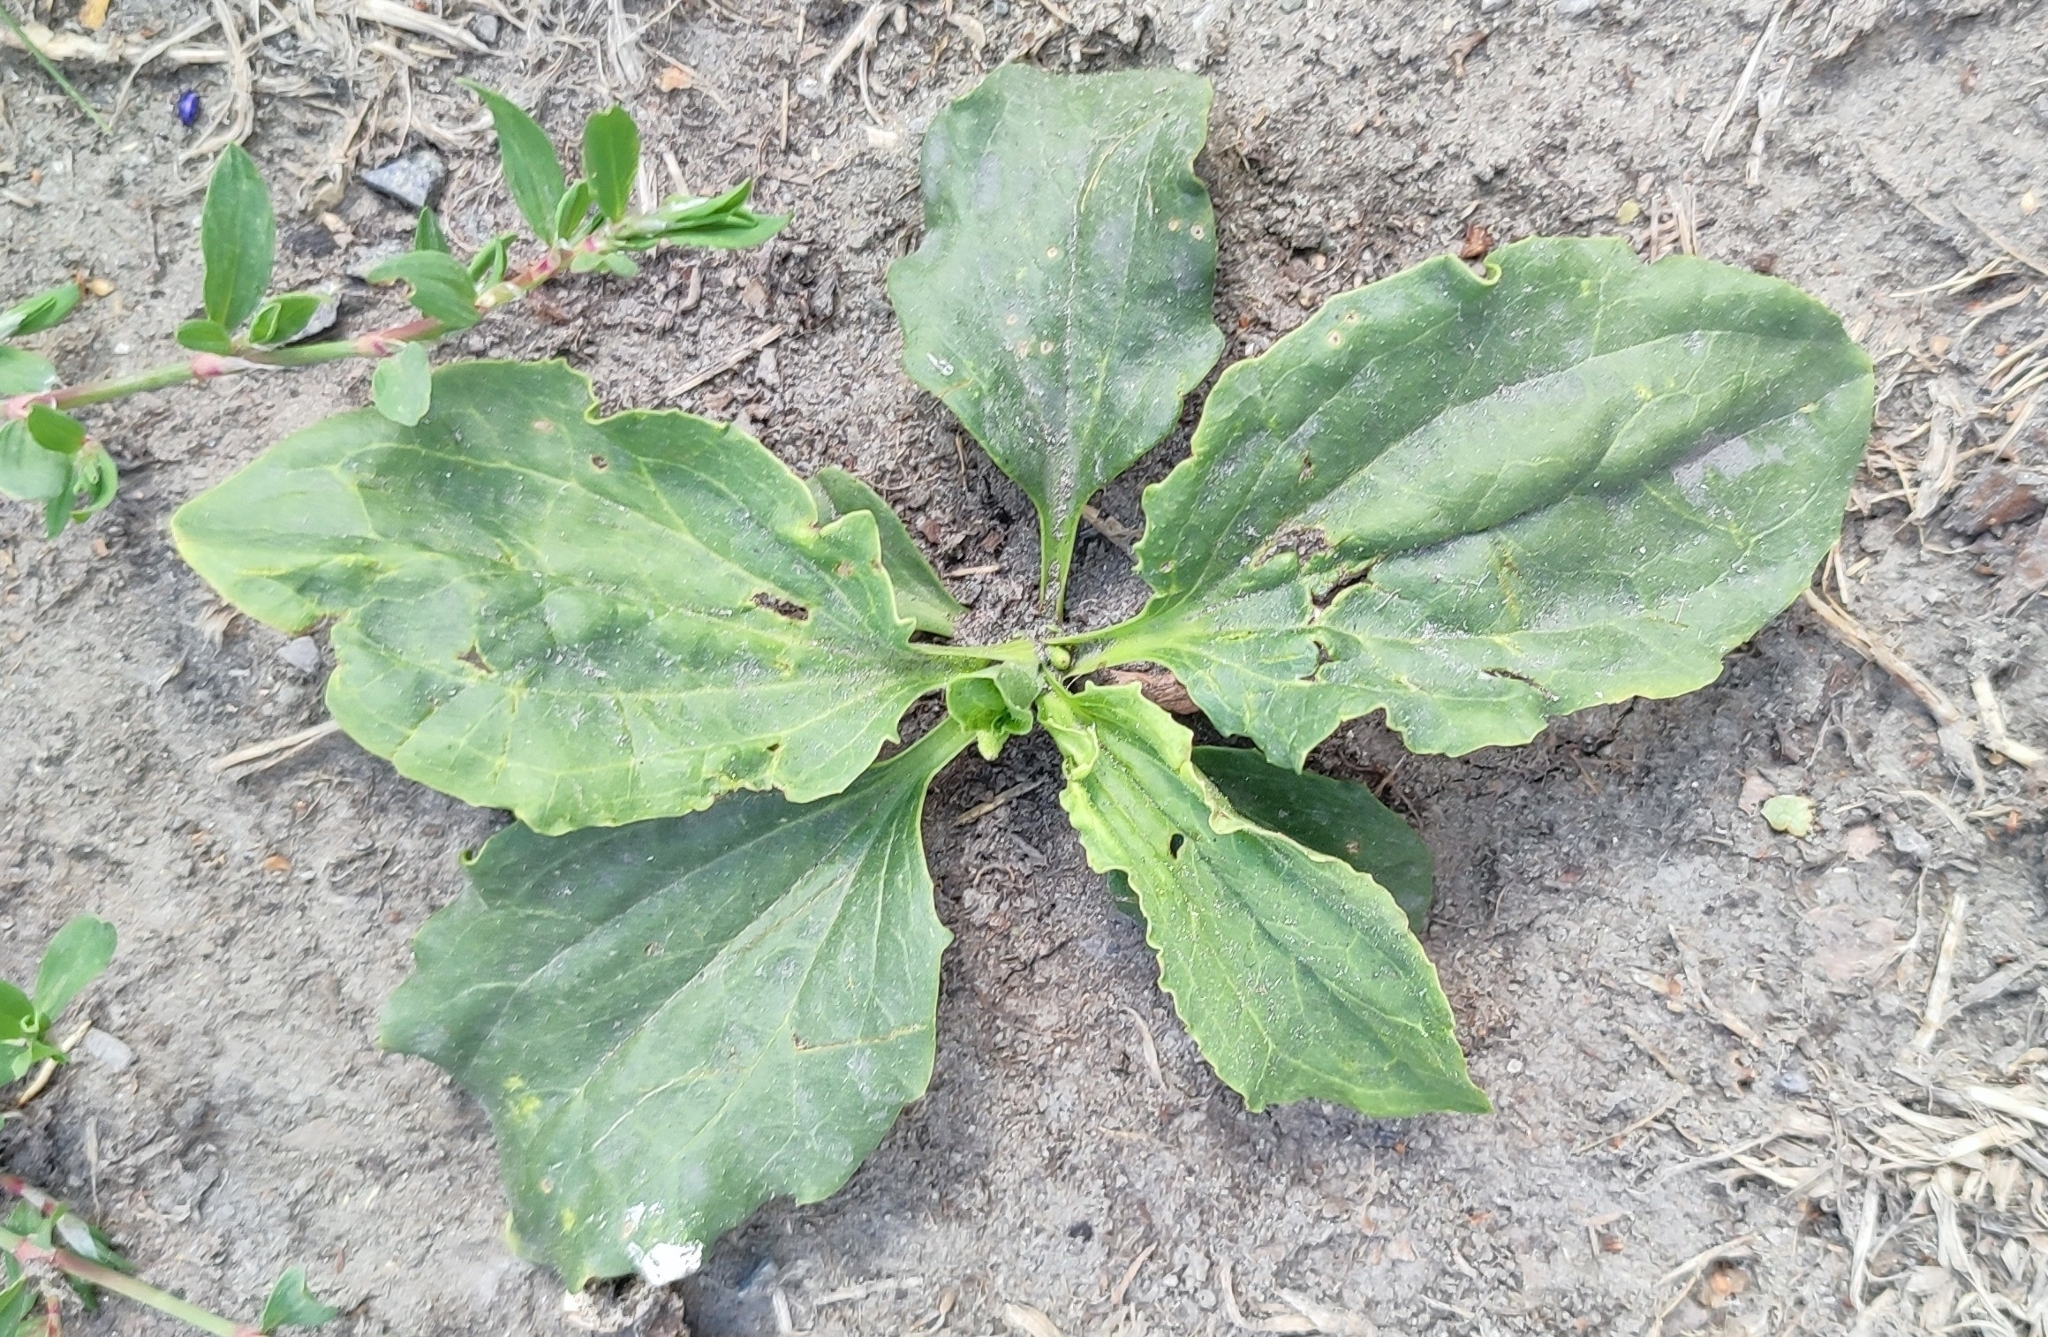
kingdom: Plantae
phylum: Tracheophyta
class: Magnoliopsida
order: Lamiales
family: Plantaginaceae
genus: Plantago
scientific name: Plantago major
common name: Common plantain
